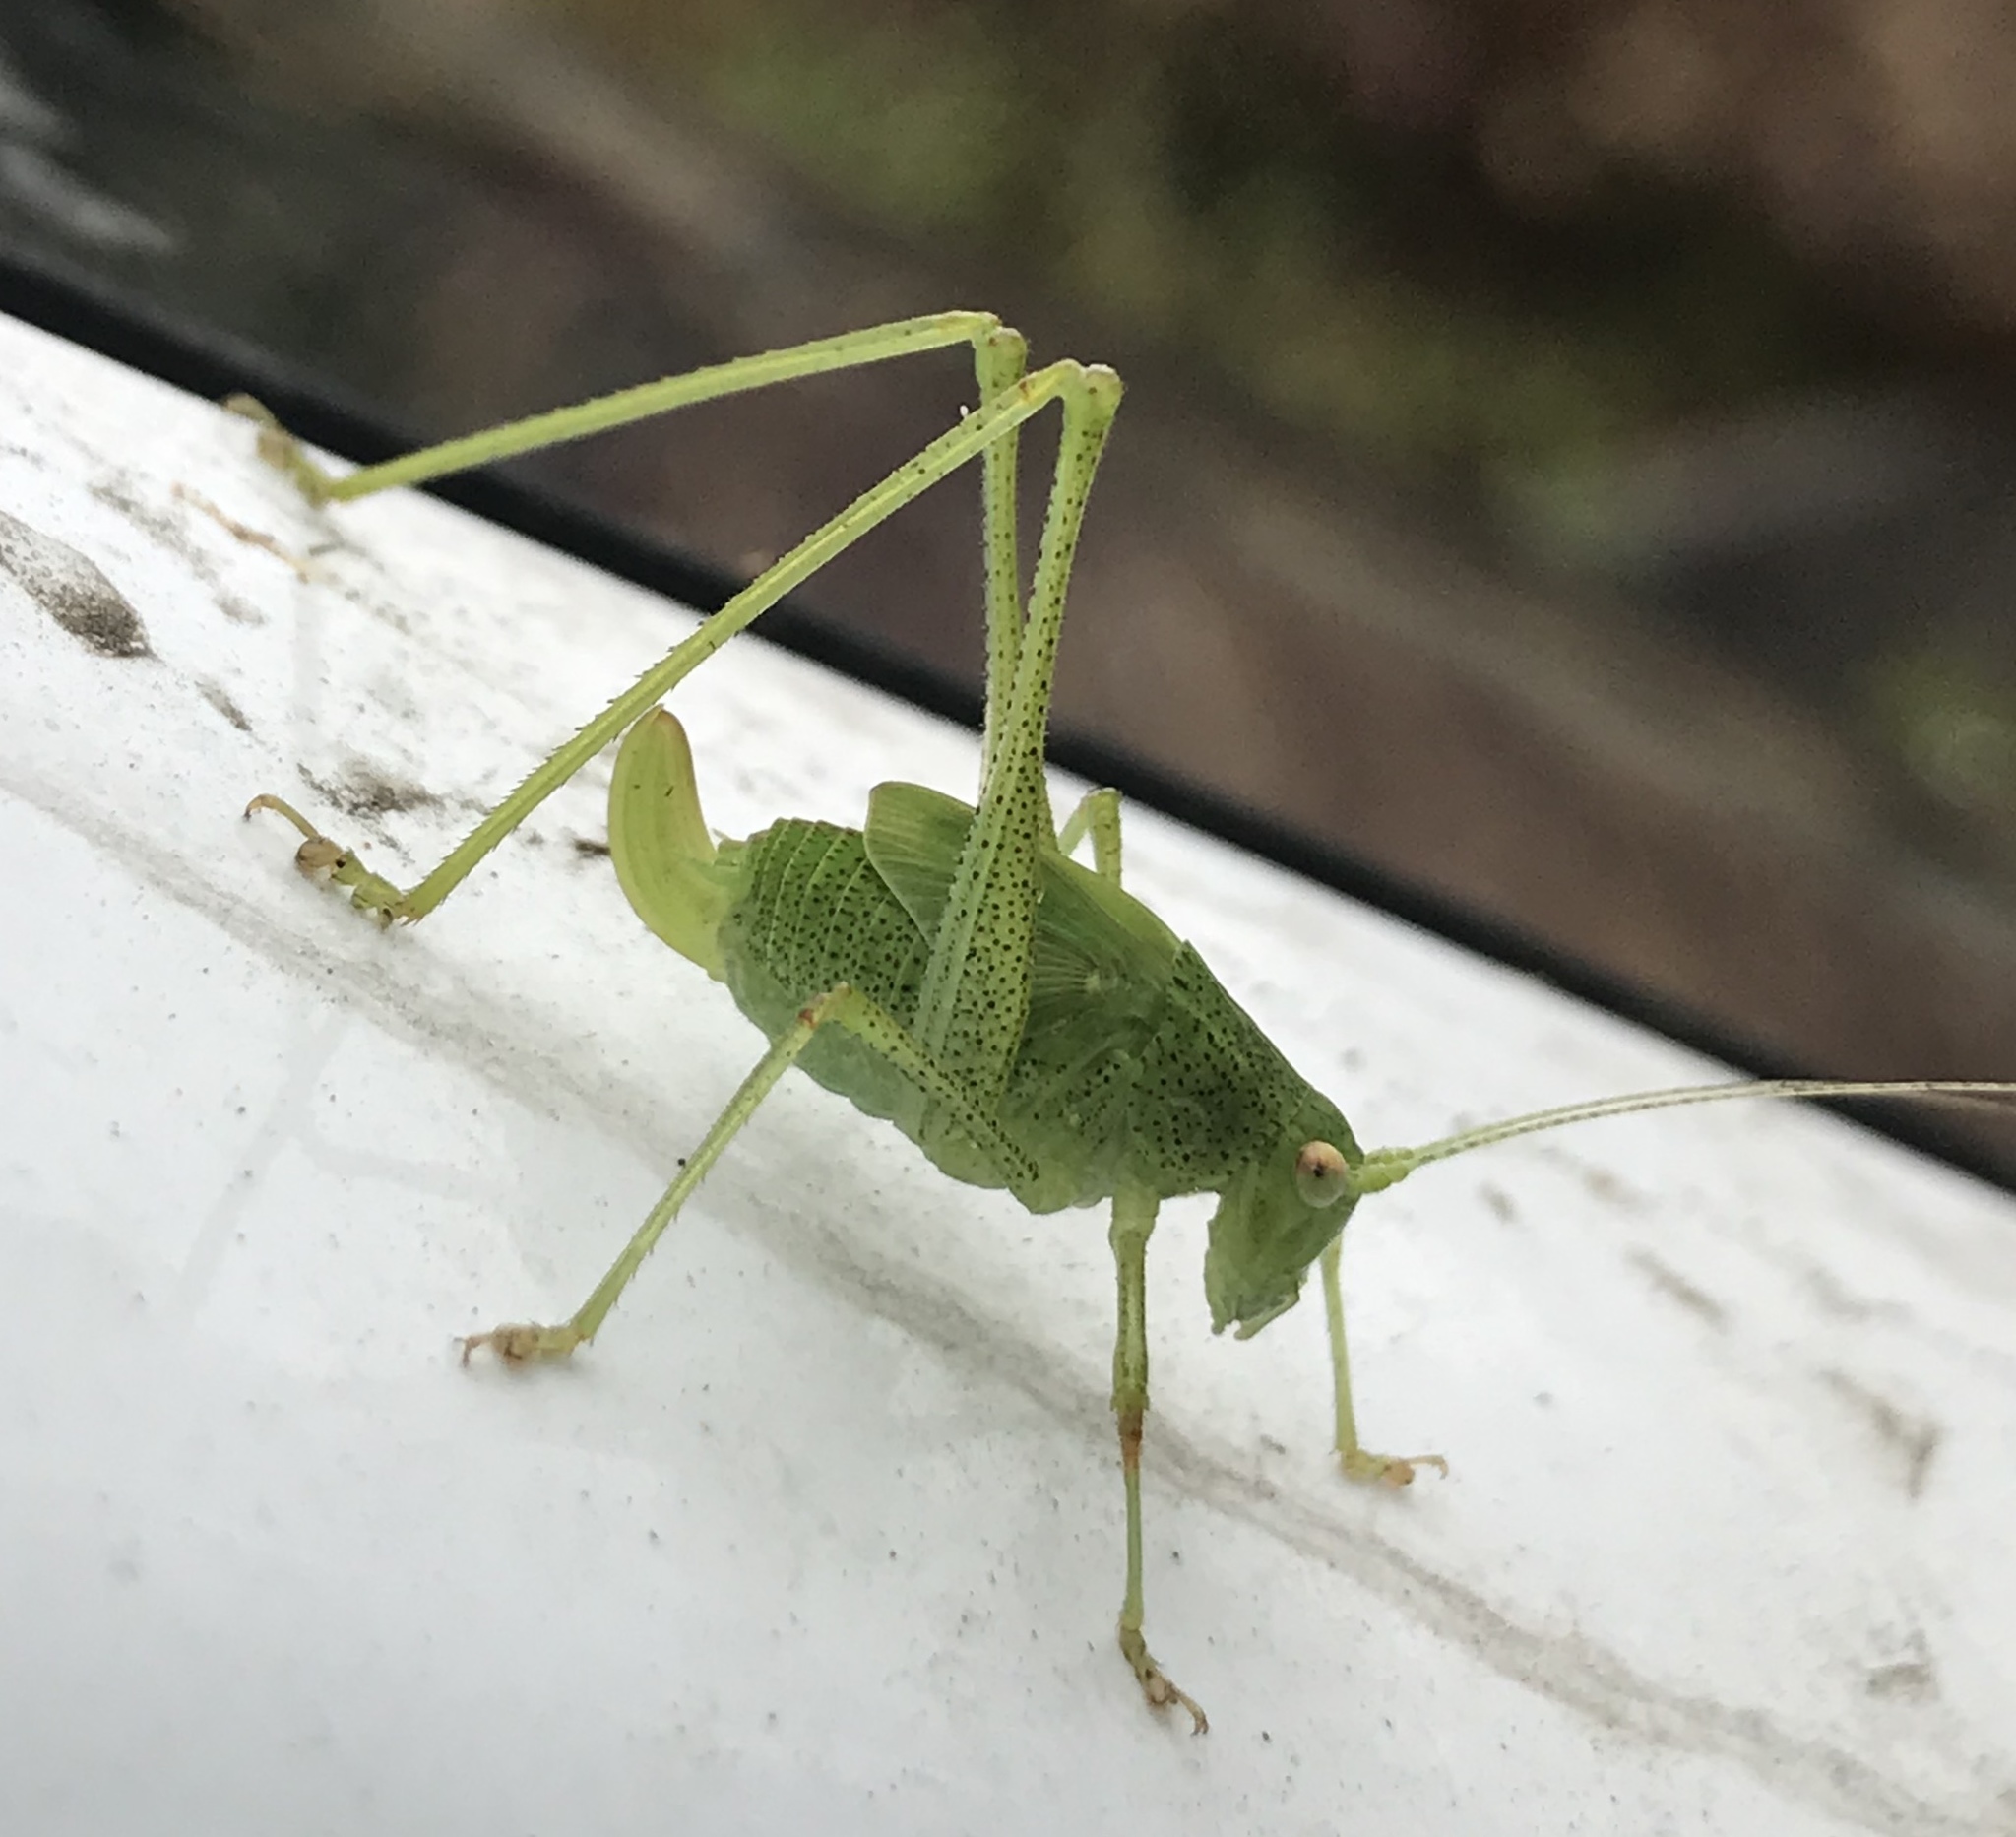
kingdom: Animalia
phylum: Arthropoda
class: Insecta
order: Orthoptera
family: Tettigoniidae
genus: Phaneroptera
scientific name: Phaneroptera nana
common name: Southern sickle bush-cricket
